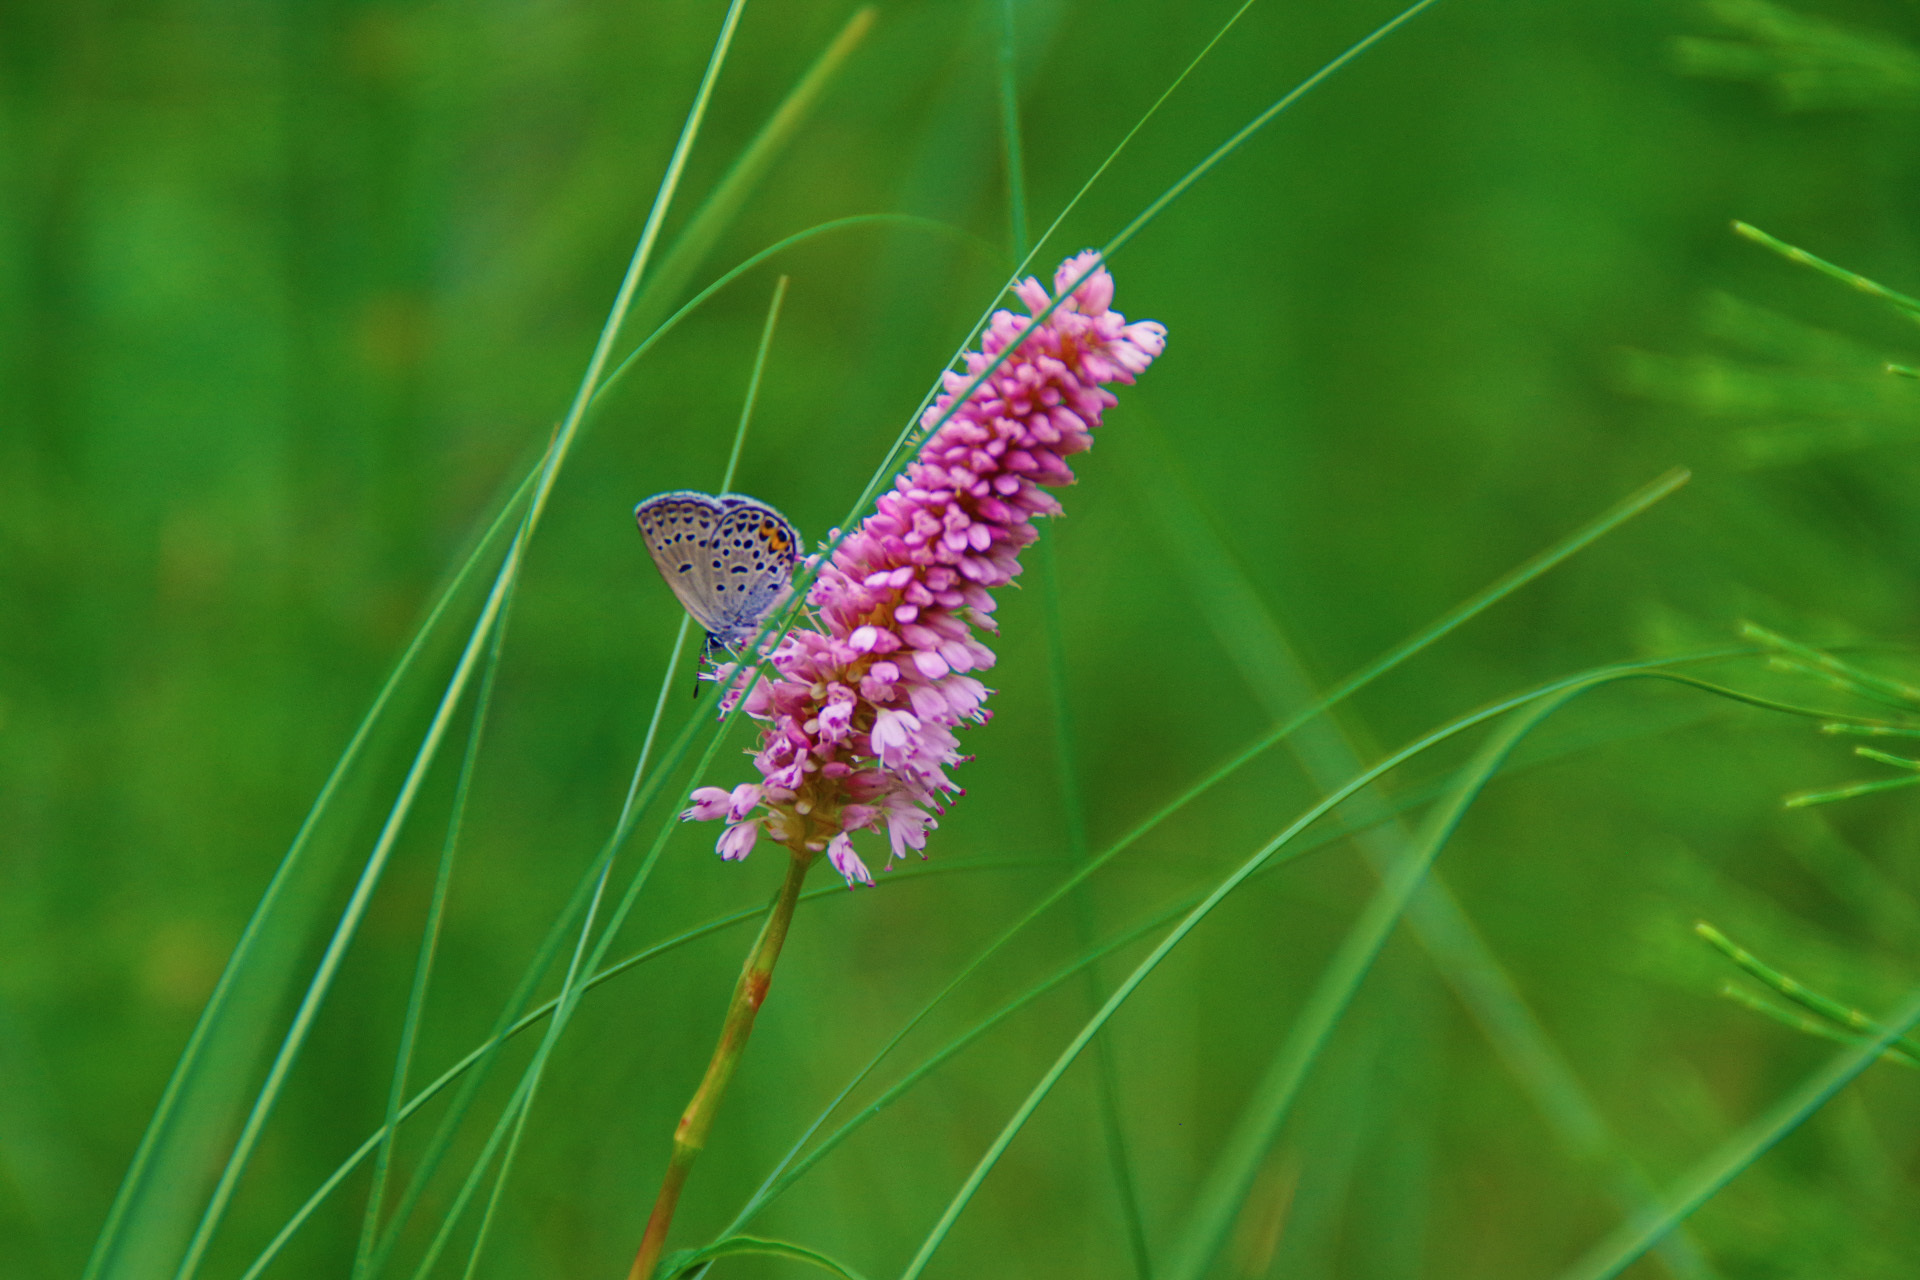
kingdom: Animalia
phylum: Arthropoda
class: Insecta
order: Lepidoptera
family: Lycaenidae
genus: Vacciniina
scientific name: Vacciniina optilete
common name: Cranberry blue
